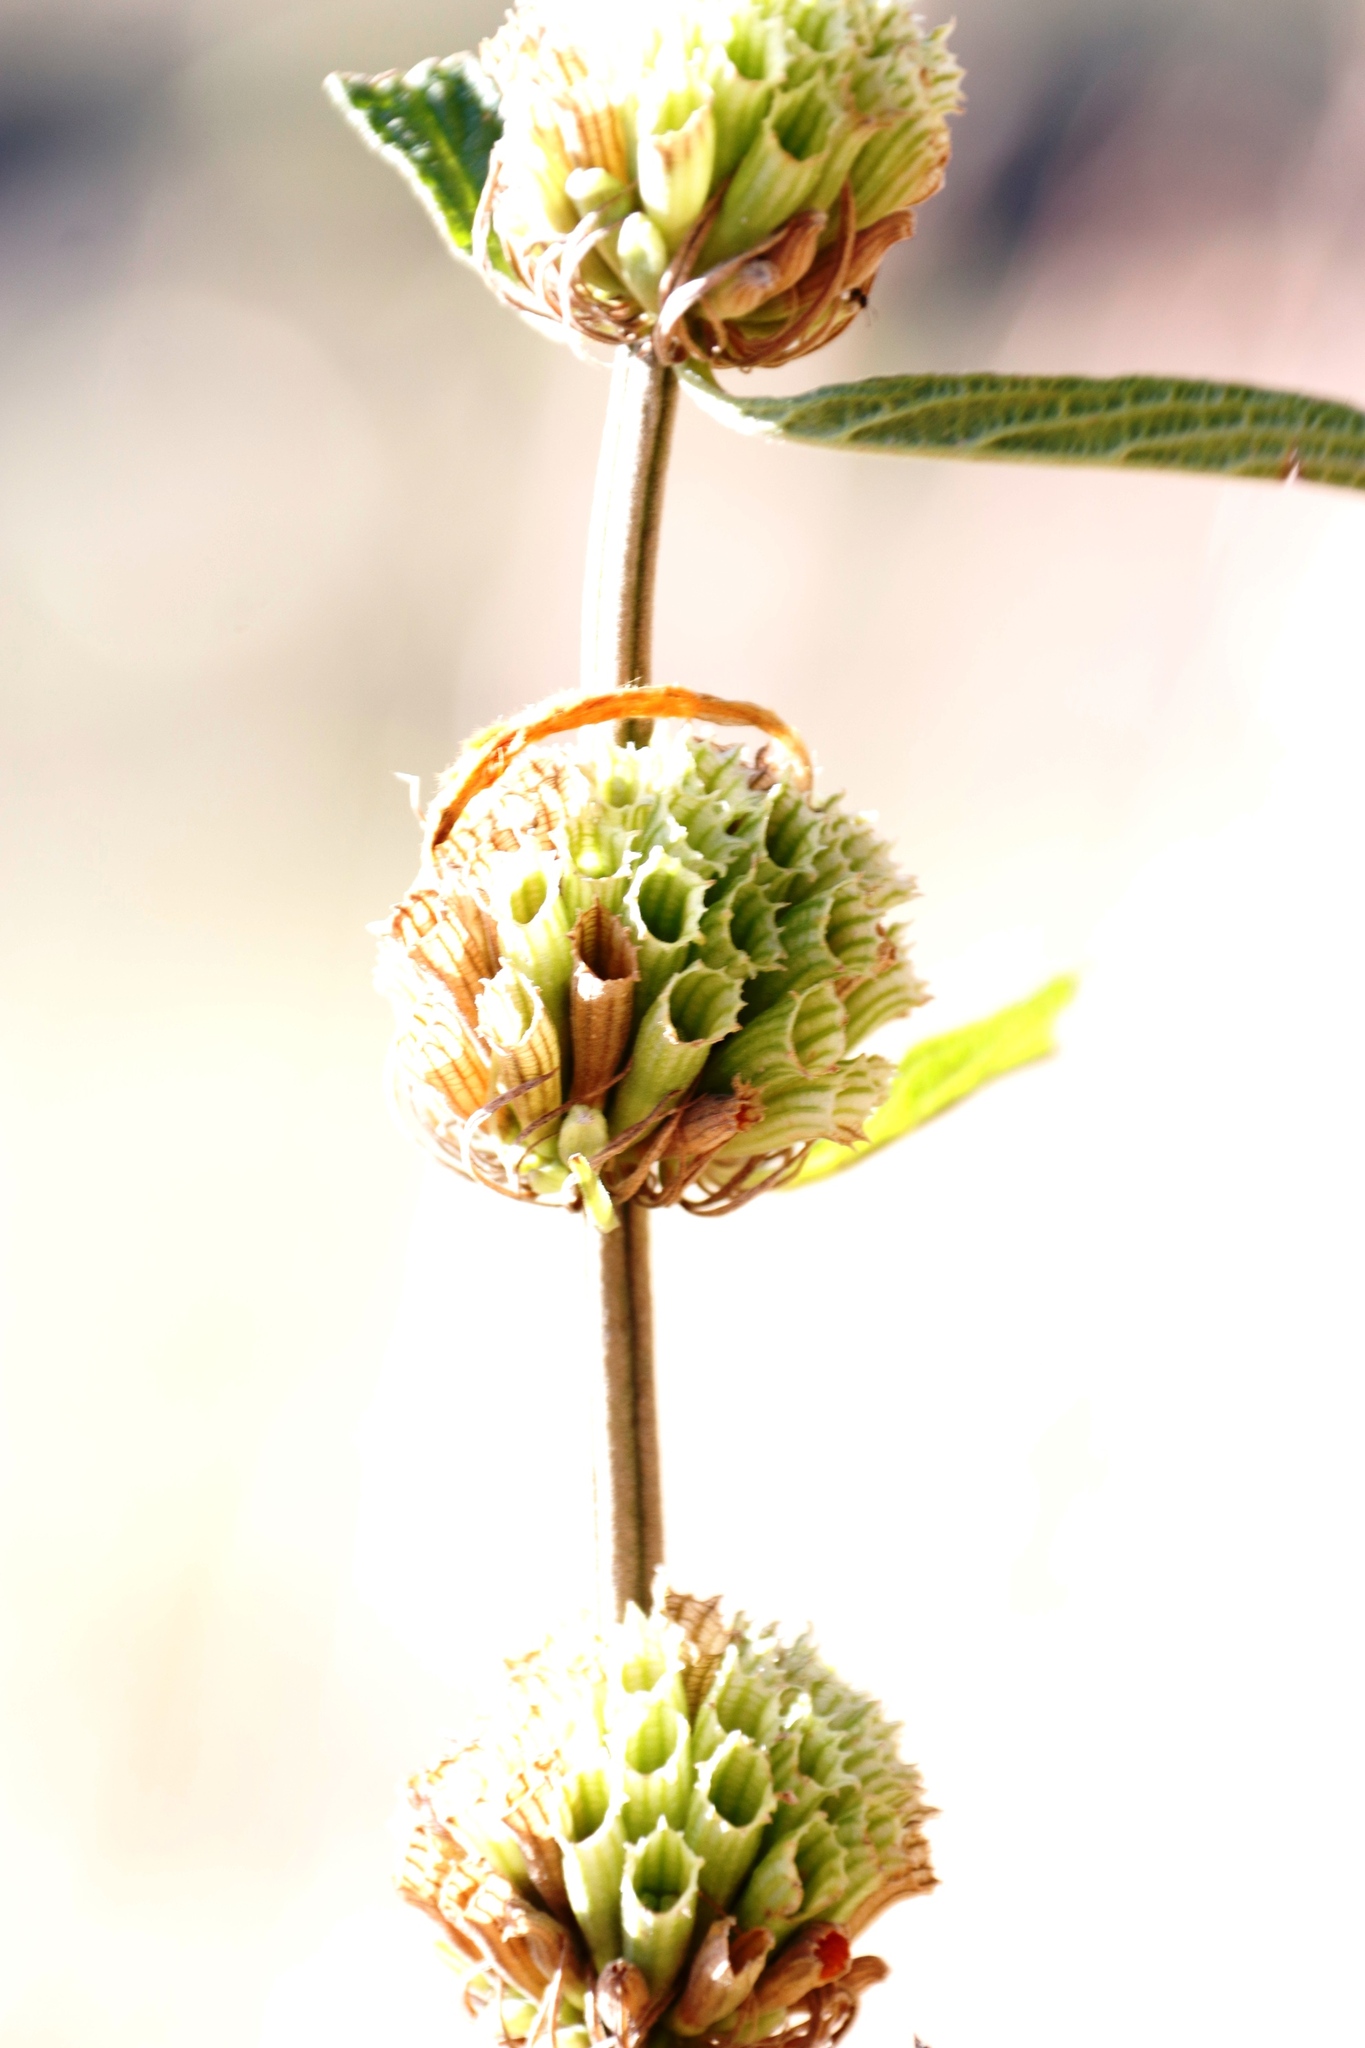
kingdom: Plantae
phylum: Tracheophyta
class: Magnoliopsida
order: Lamiales
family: Lamiaceae
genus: Leonotis
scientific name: Leonotis leonurus
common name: Lion's ear
